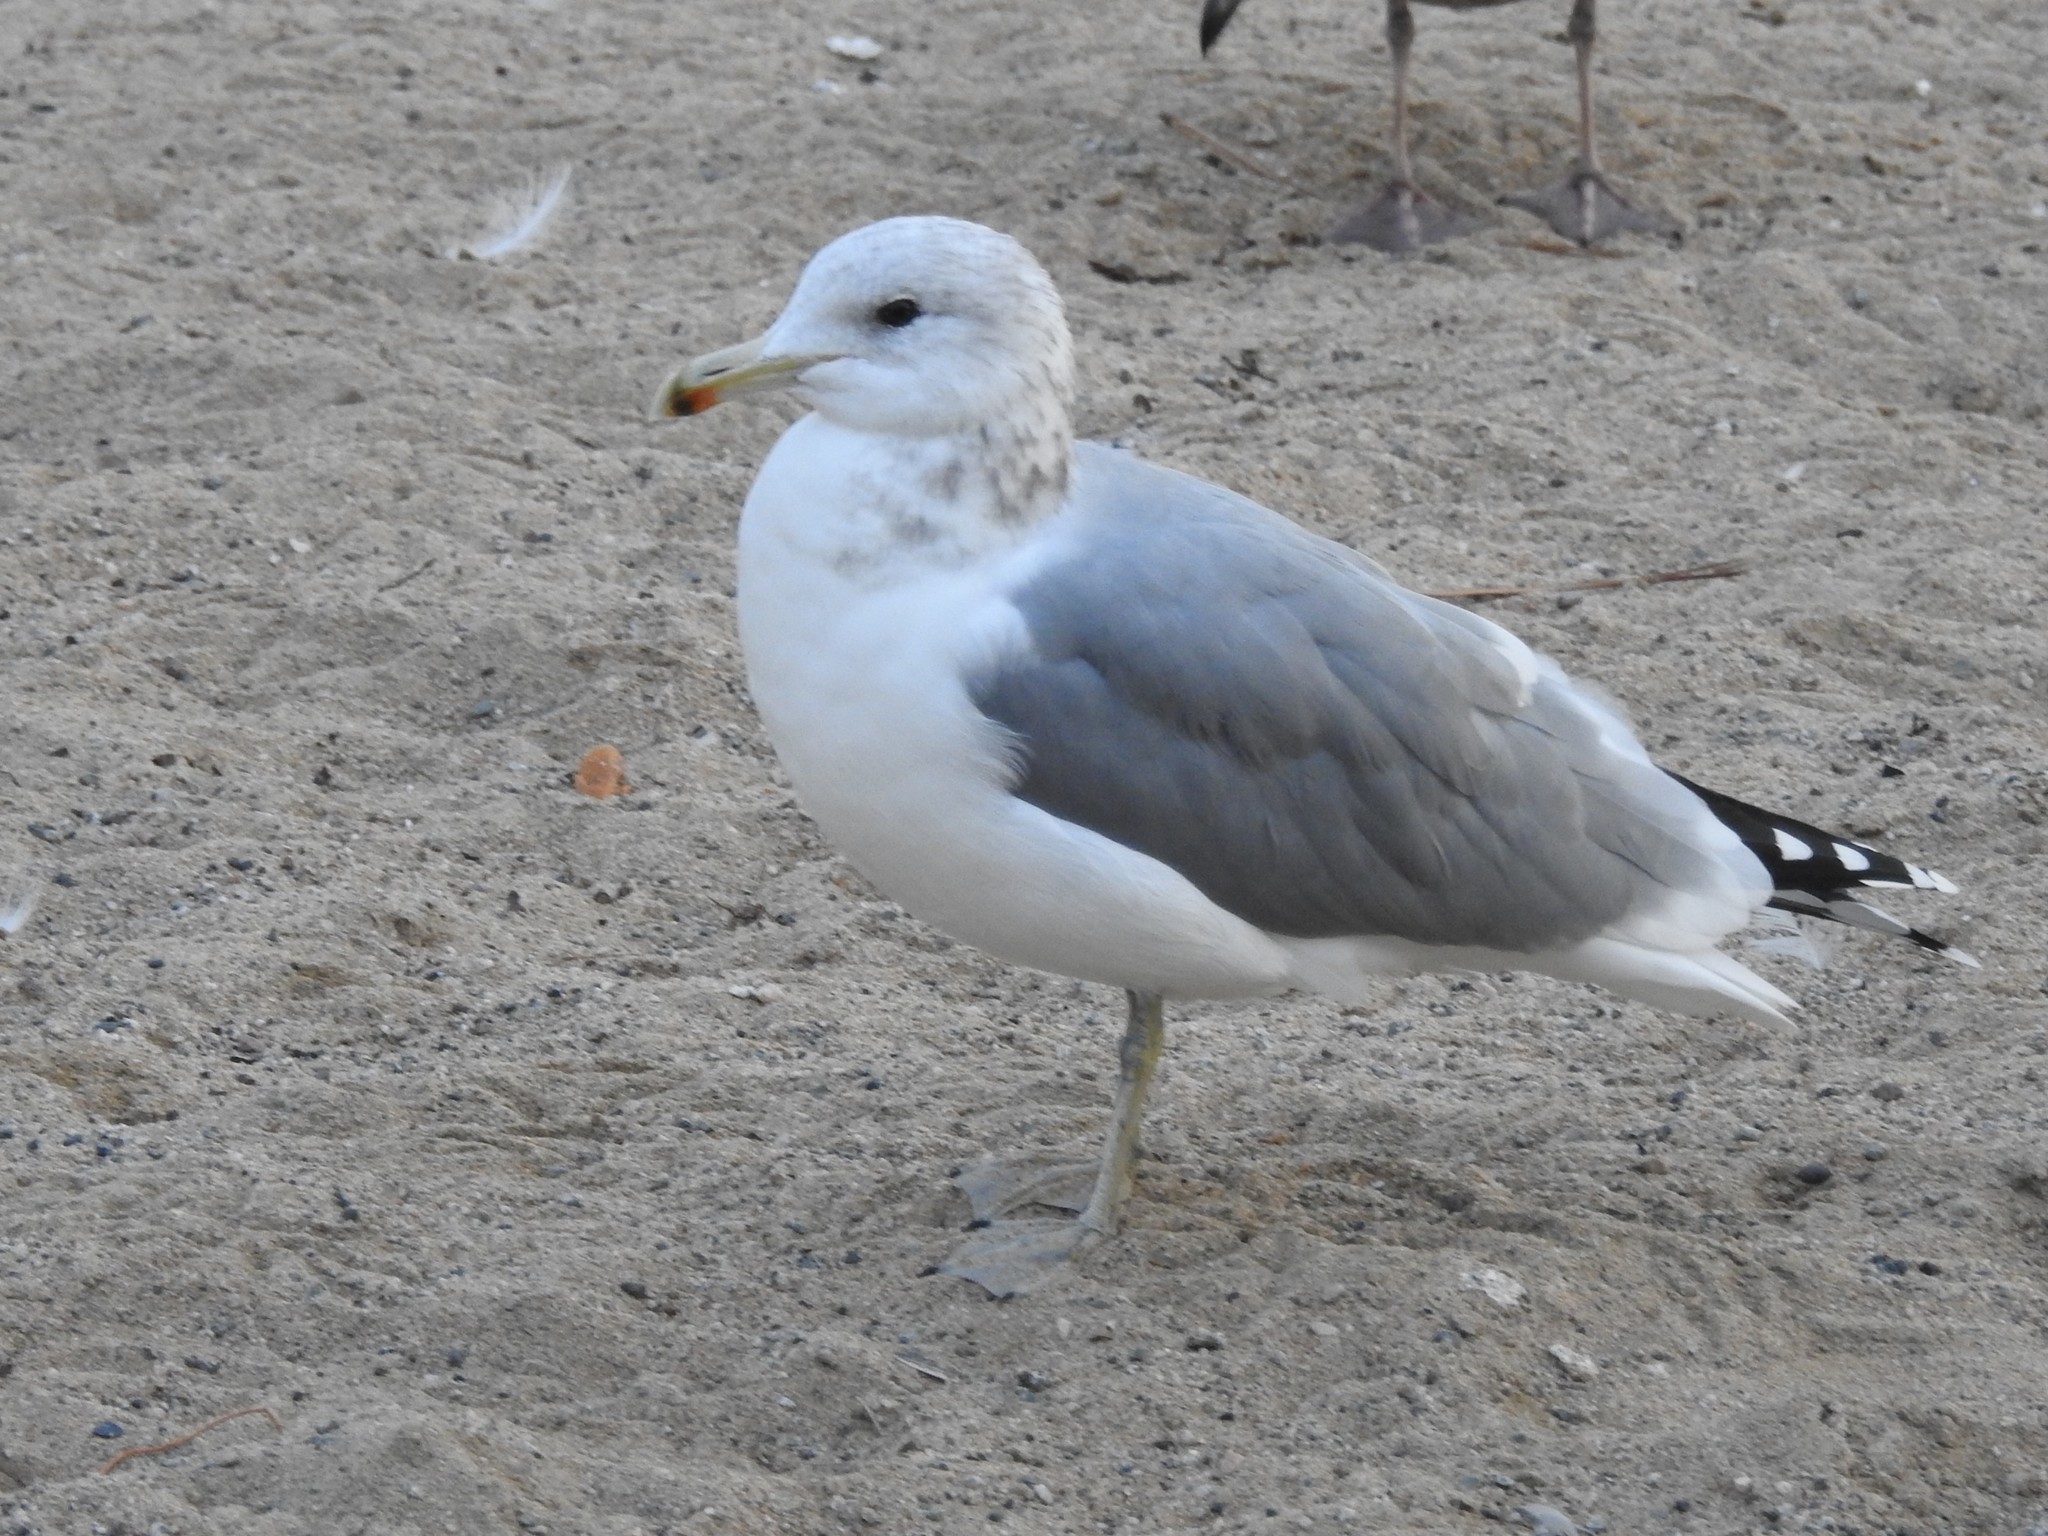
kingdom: Animalia
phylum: Chordata
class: Aves
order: Charadriiformes
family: Laridae
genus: Larus
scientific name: Larus californicus
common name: California gull
